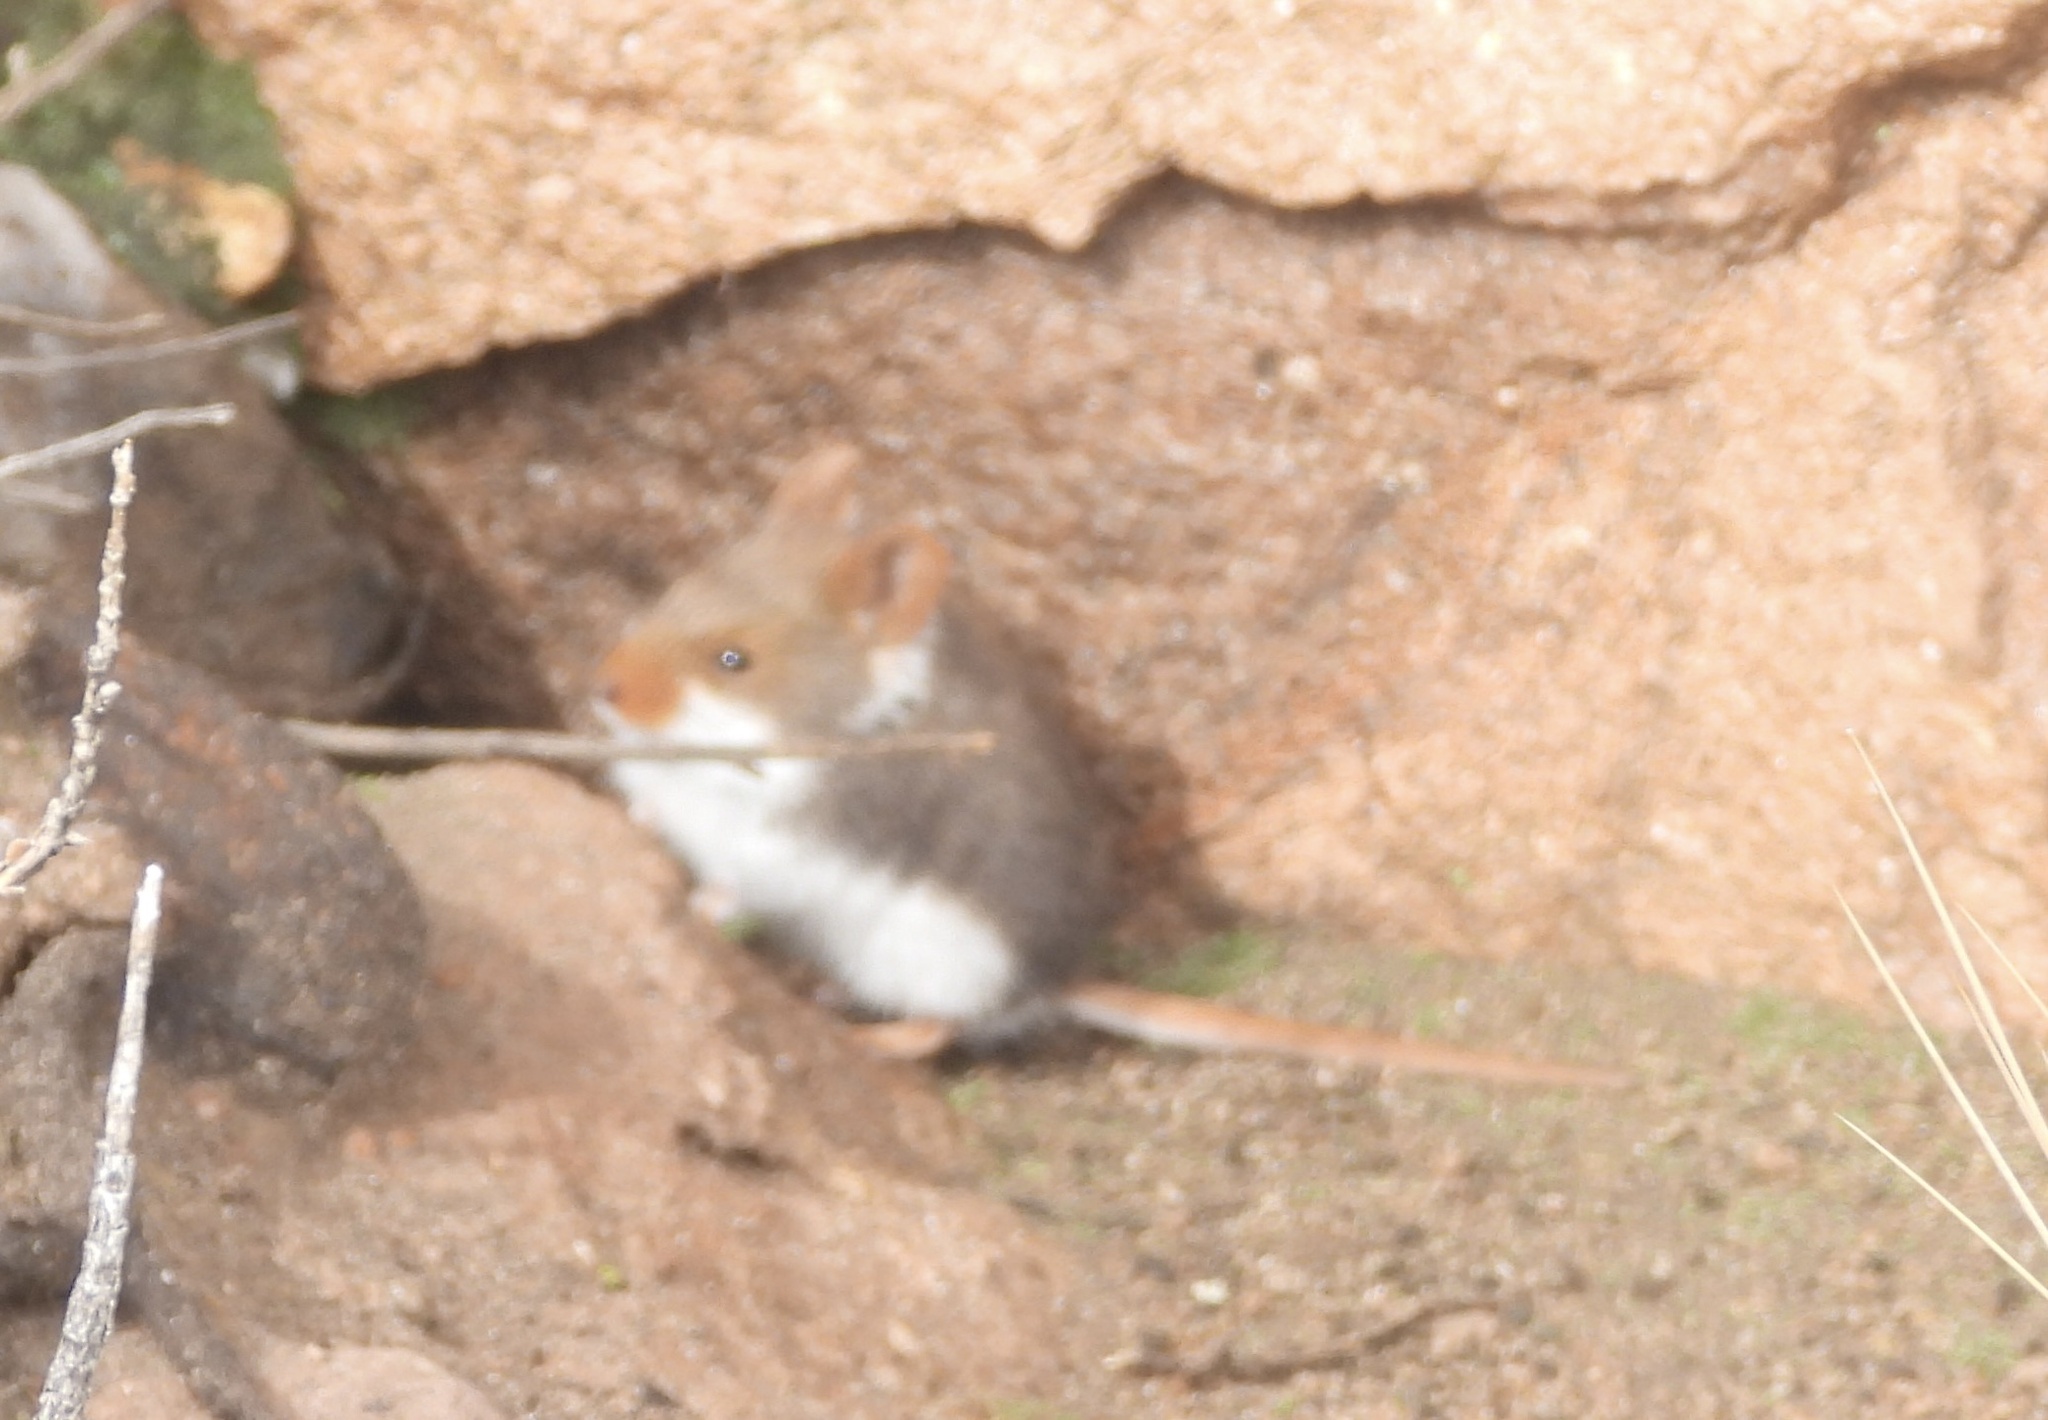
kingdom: Animalia
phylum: Chordata
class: Mammalia
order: Rodentia
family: Cricetidae
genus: Abrothrix
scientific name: Abrothrix jelskii
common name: Ornate akodont
